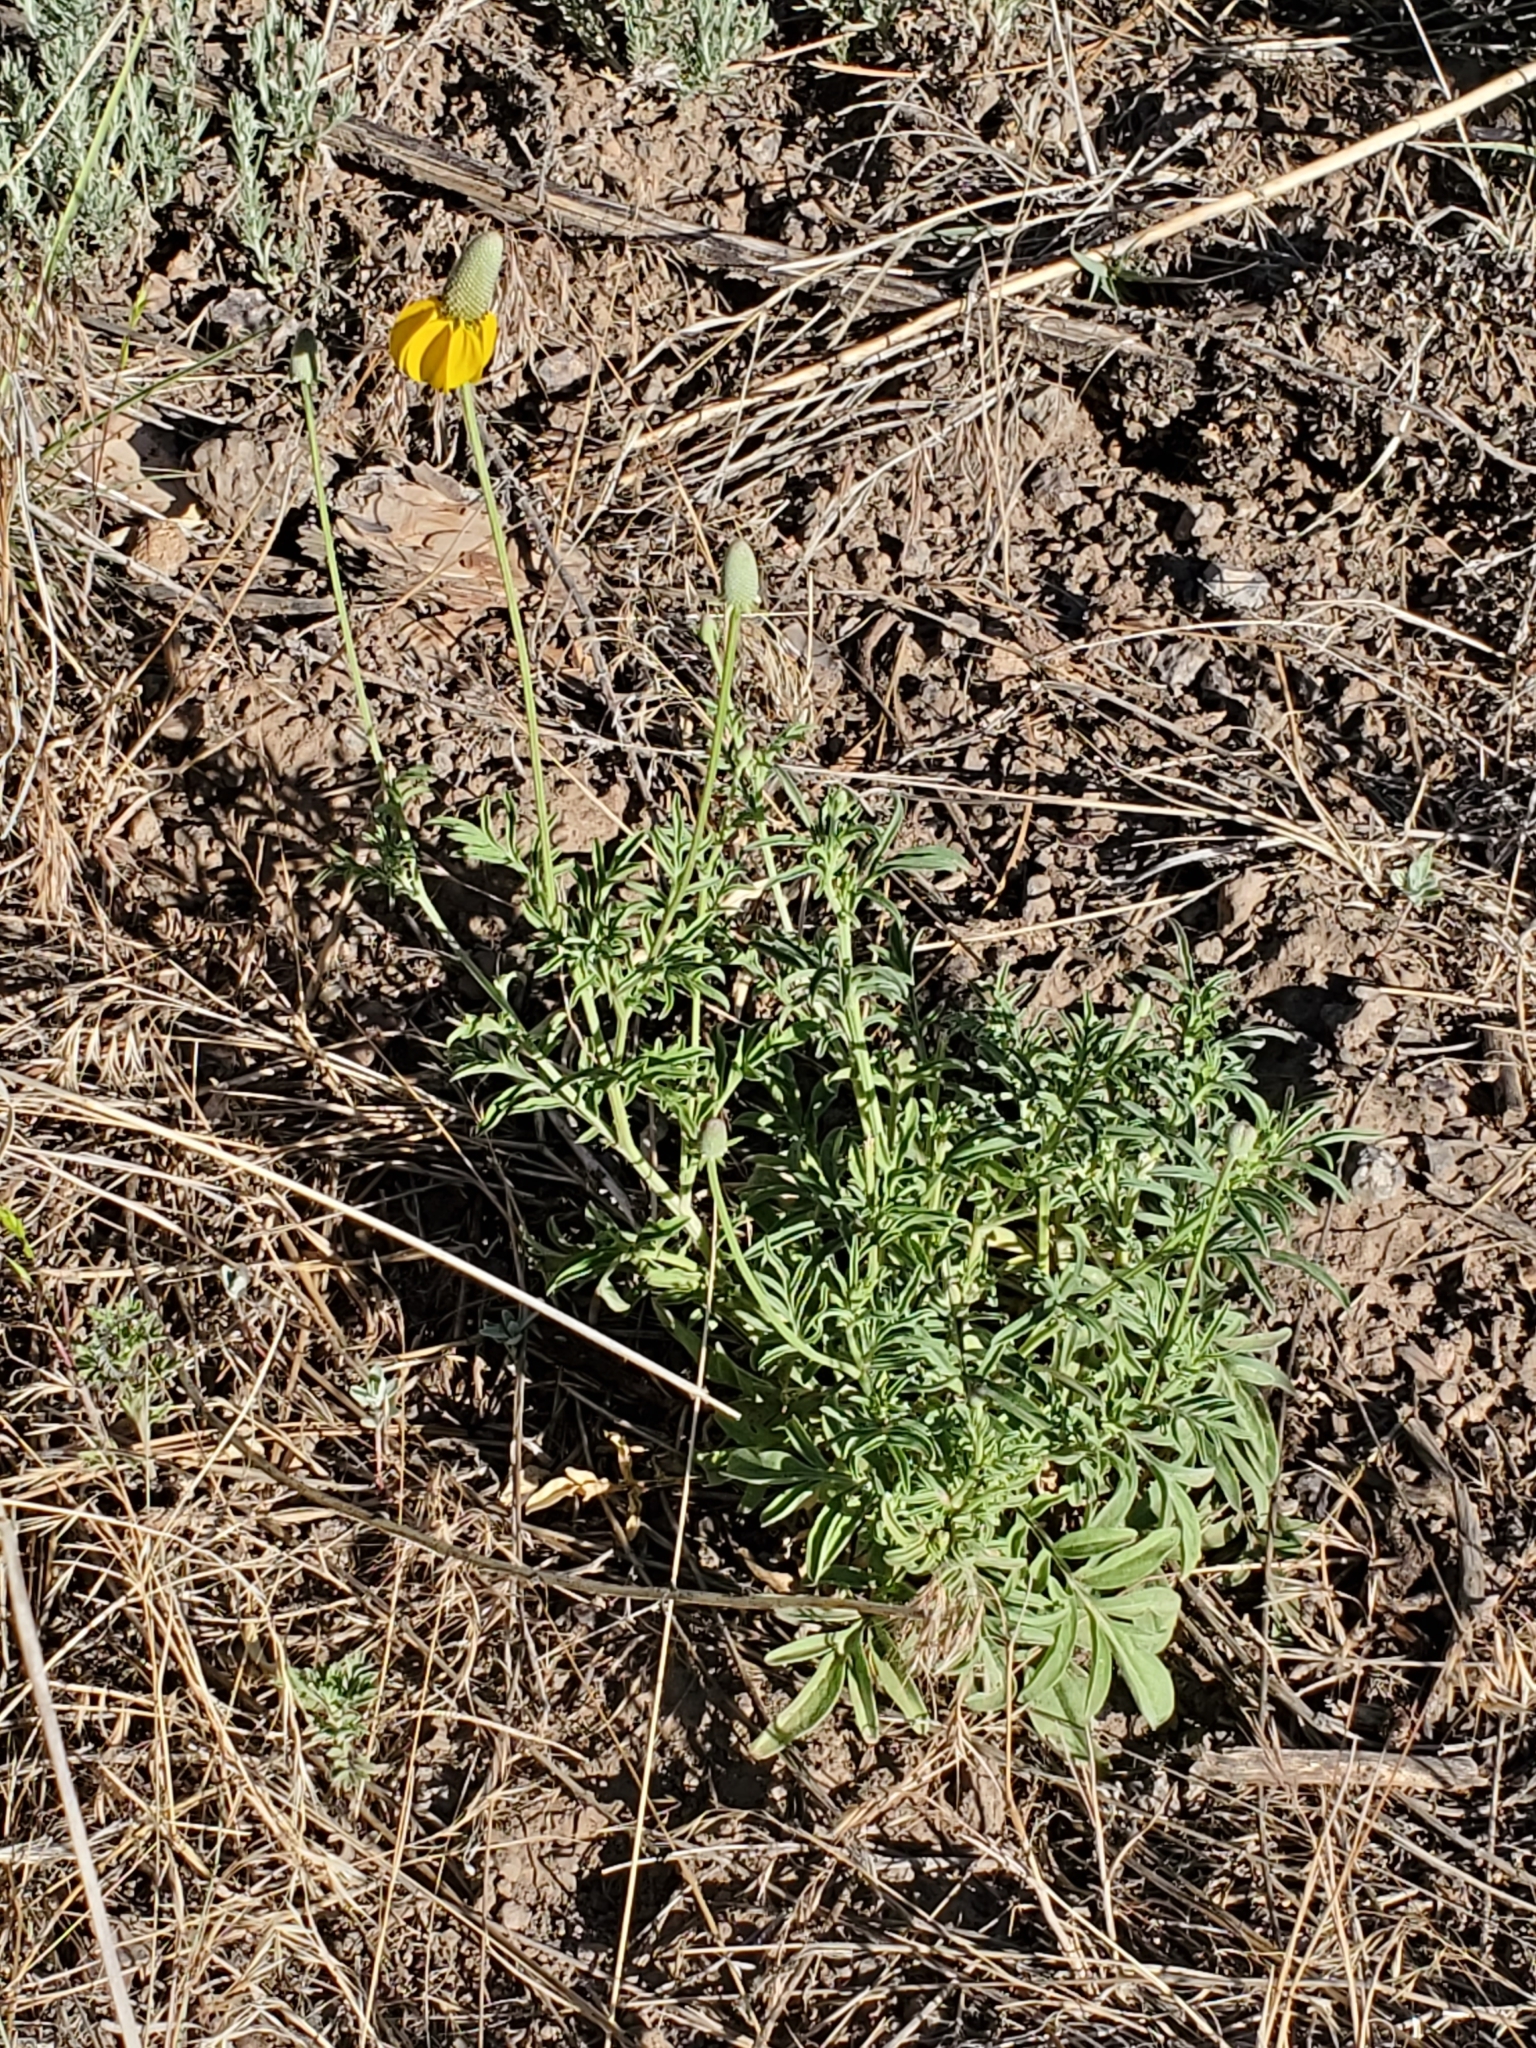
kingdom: Plantae
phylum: Tracheophyta
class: Magnoliopsida
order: Asterales
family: Asteraceae
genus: Ratibida
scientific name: Ratibida columnifera
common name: Prairie coneflower
